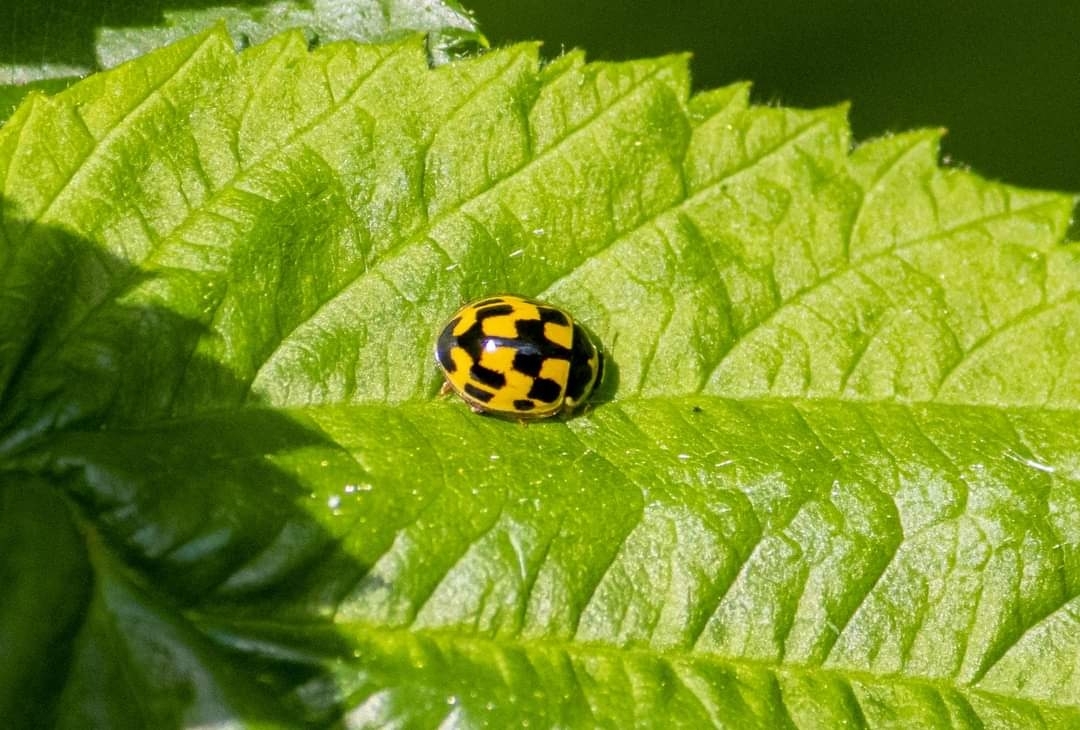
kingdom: Animalia
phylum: Arthropoda
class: Insecta
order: Coleoptera
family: Coccinellidae
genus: Propylaea
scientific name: Propylaea quatuordecimpunctata
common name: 14-spotted ladybird beetle
